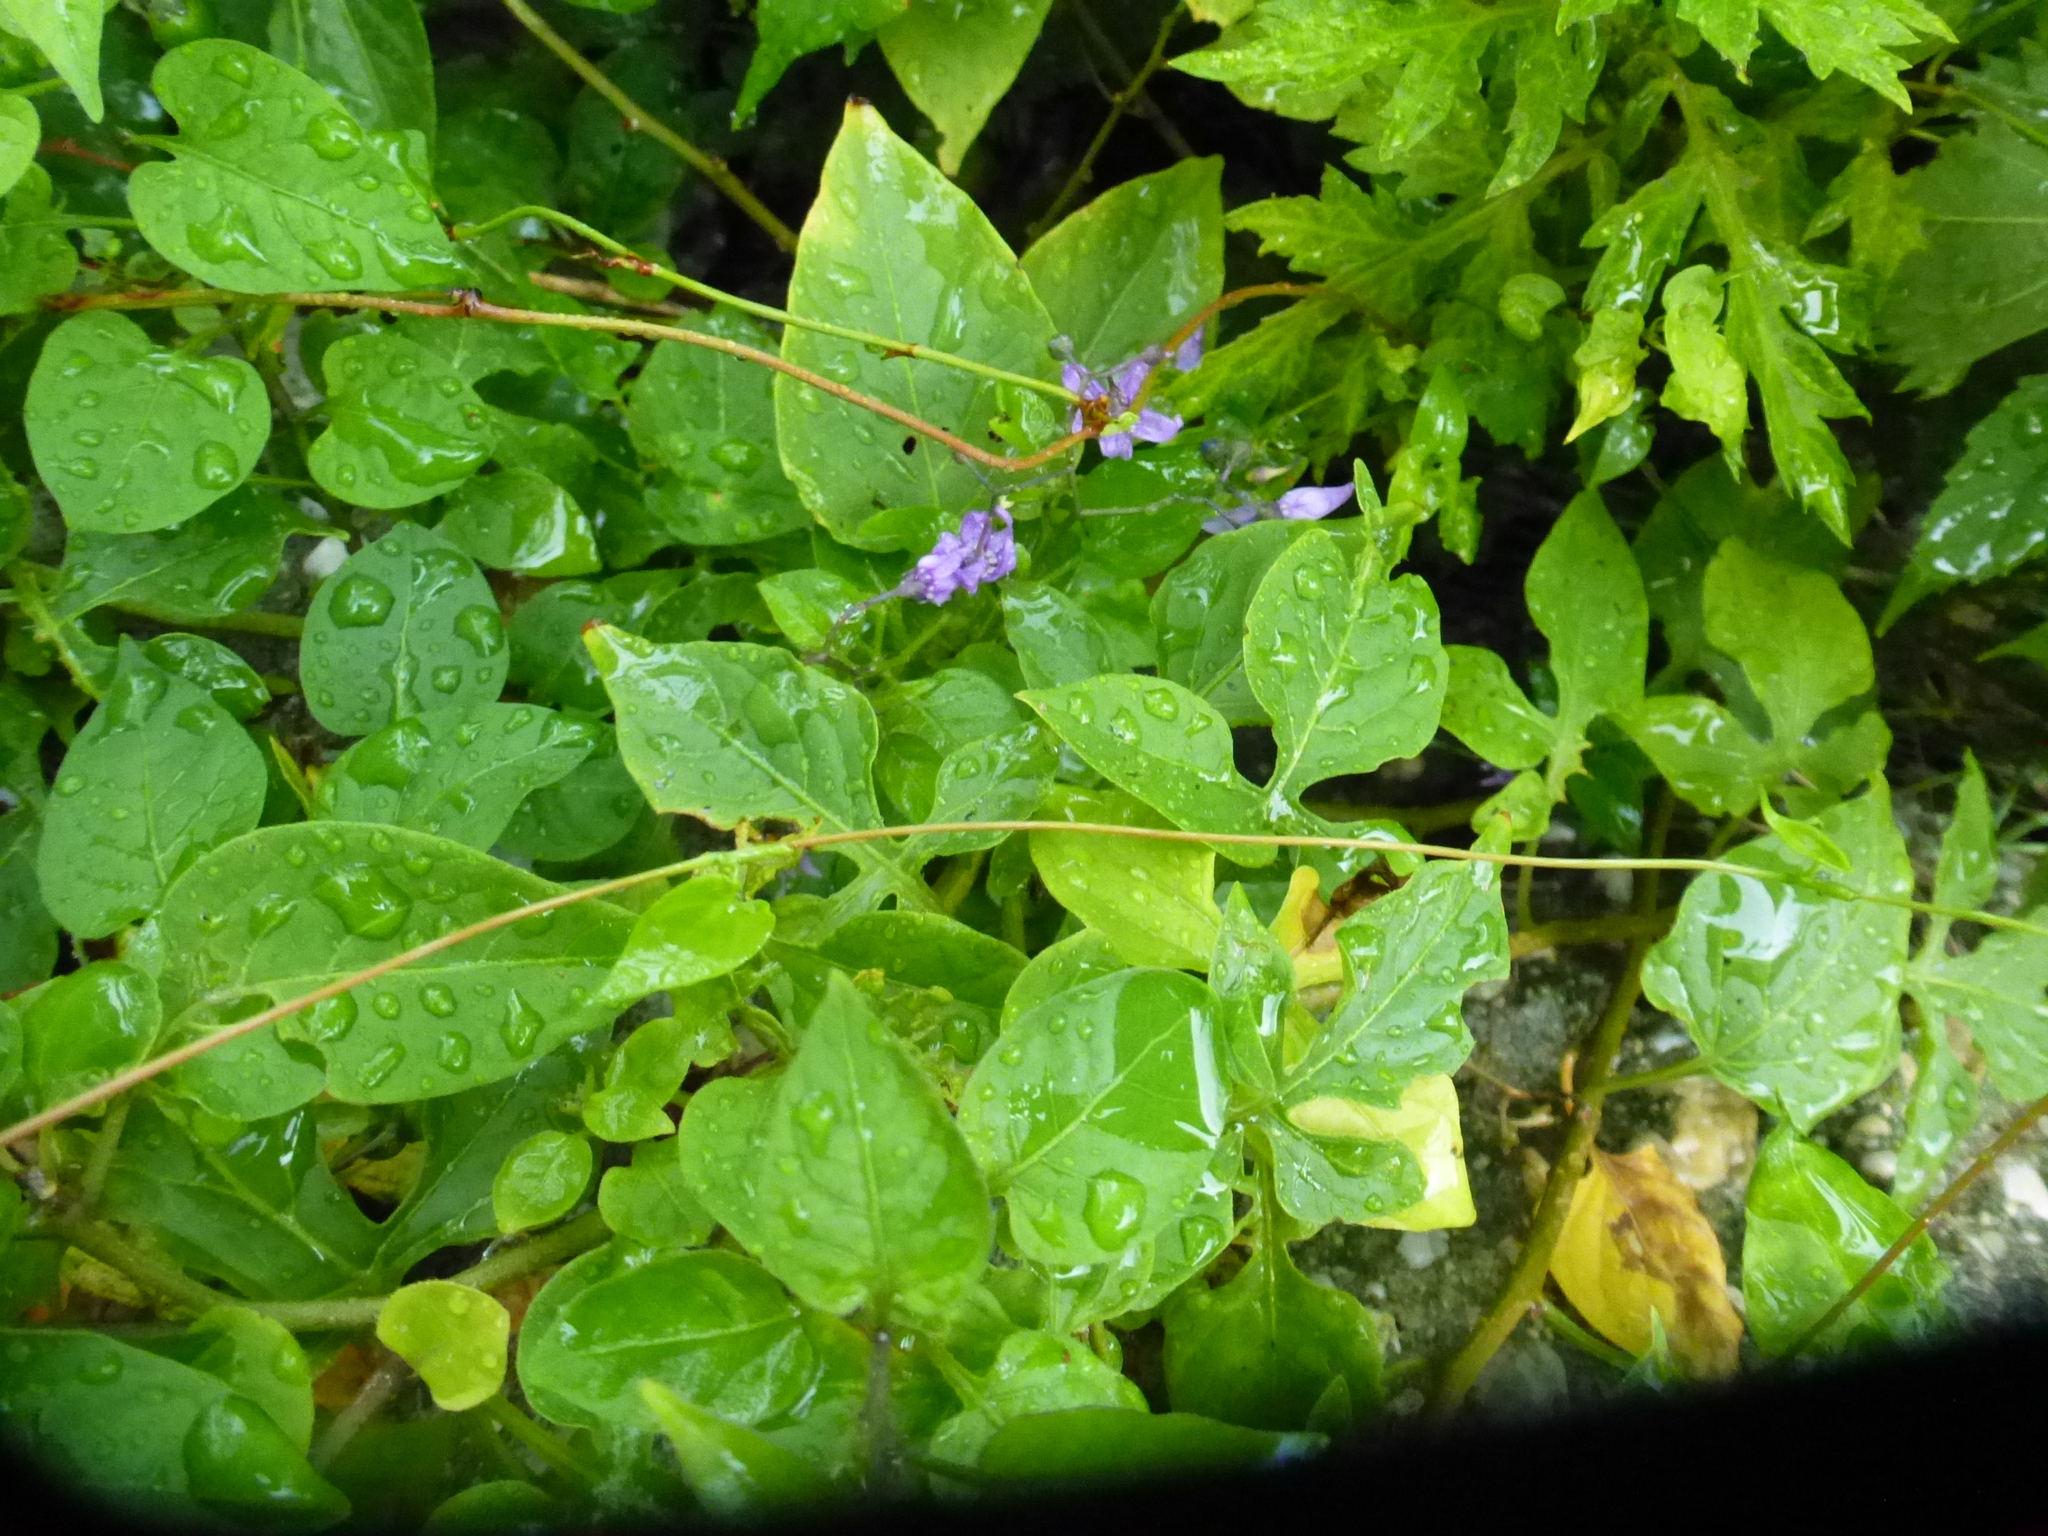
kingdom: Plantae
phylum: Tracheophyta
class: Magnoliopsida
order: Solanales
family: Solanaceae
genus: Solanum
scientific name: Solanum dulcamara
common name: Climbing nightshade
